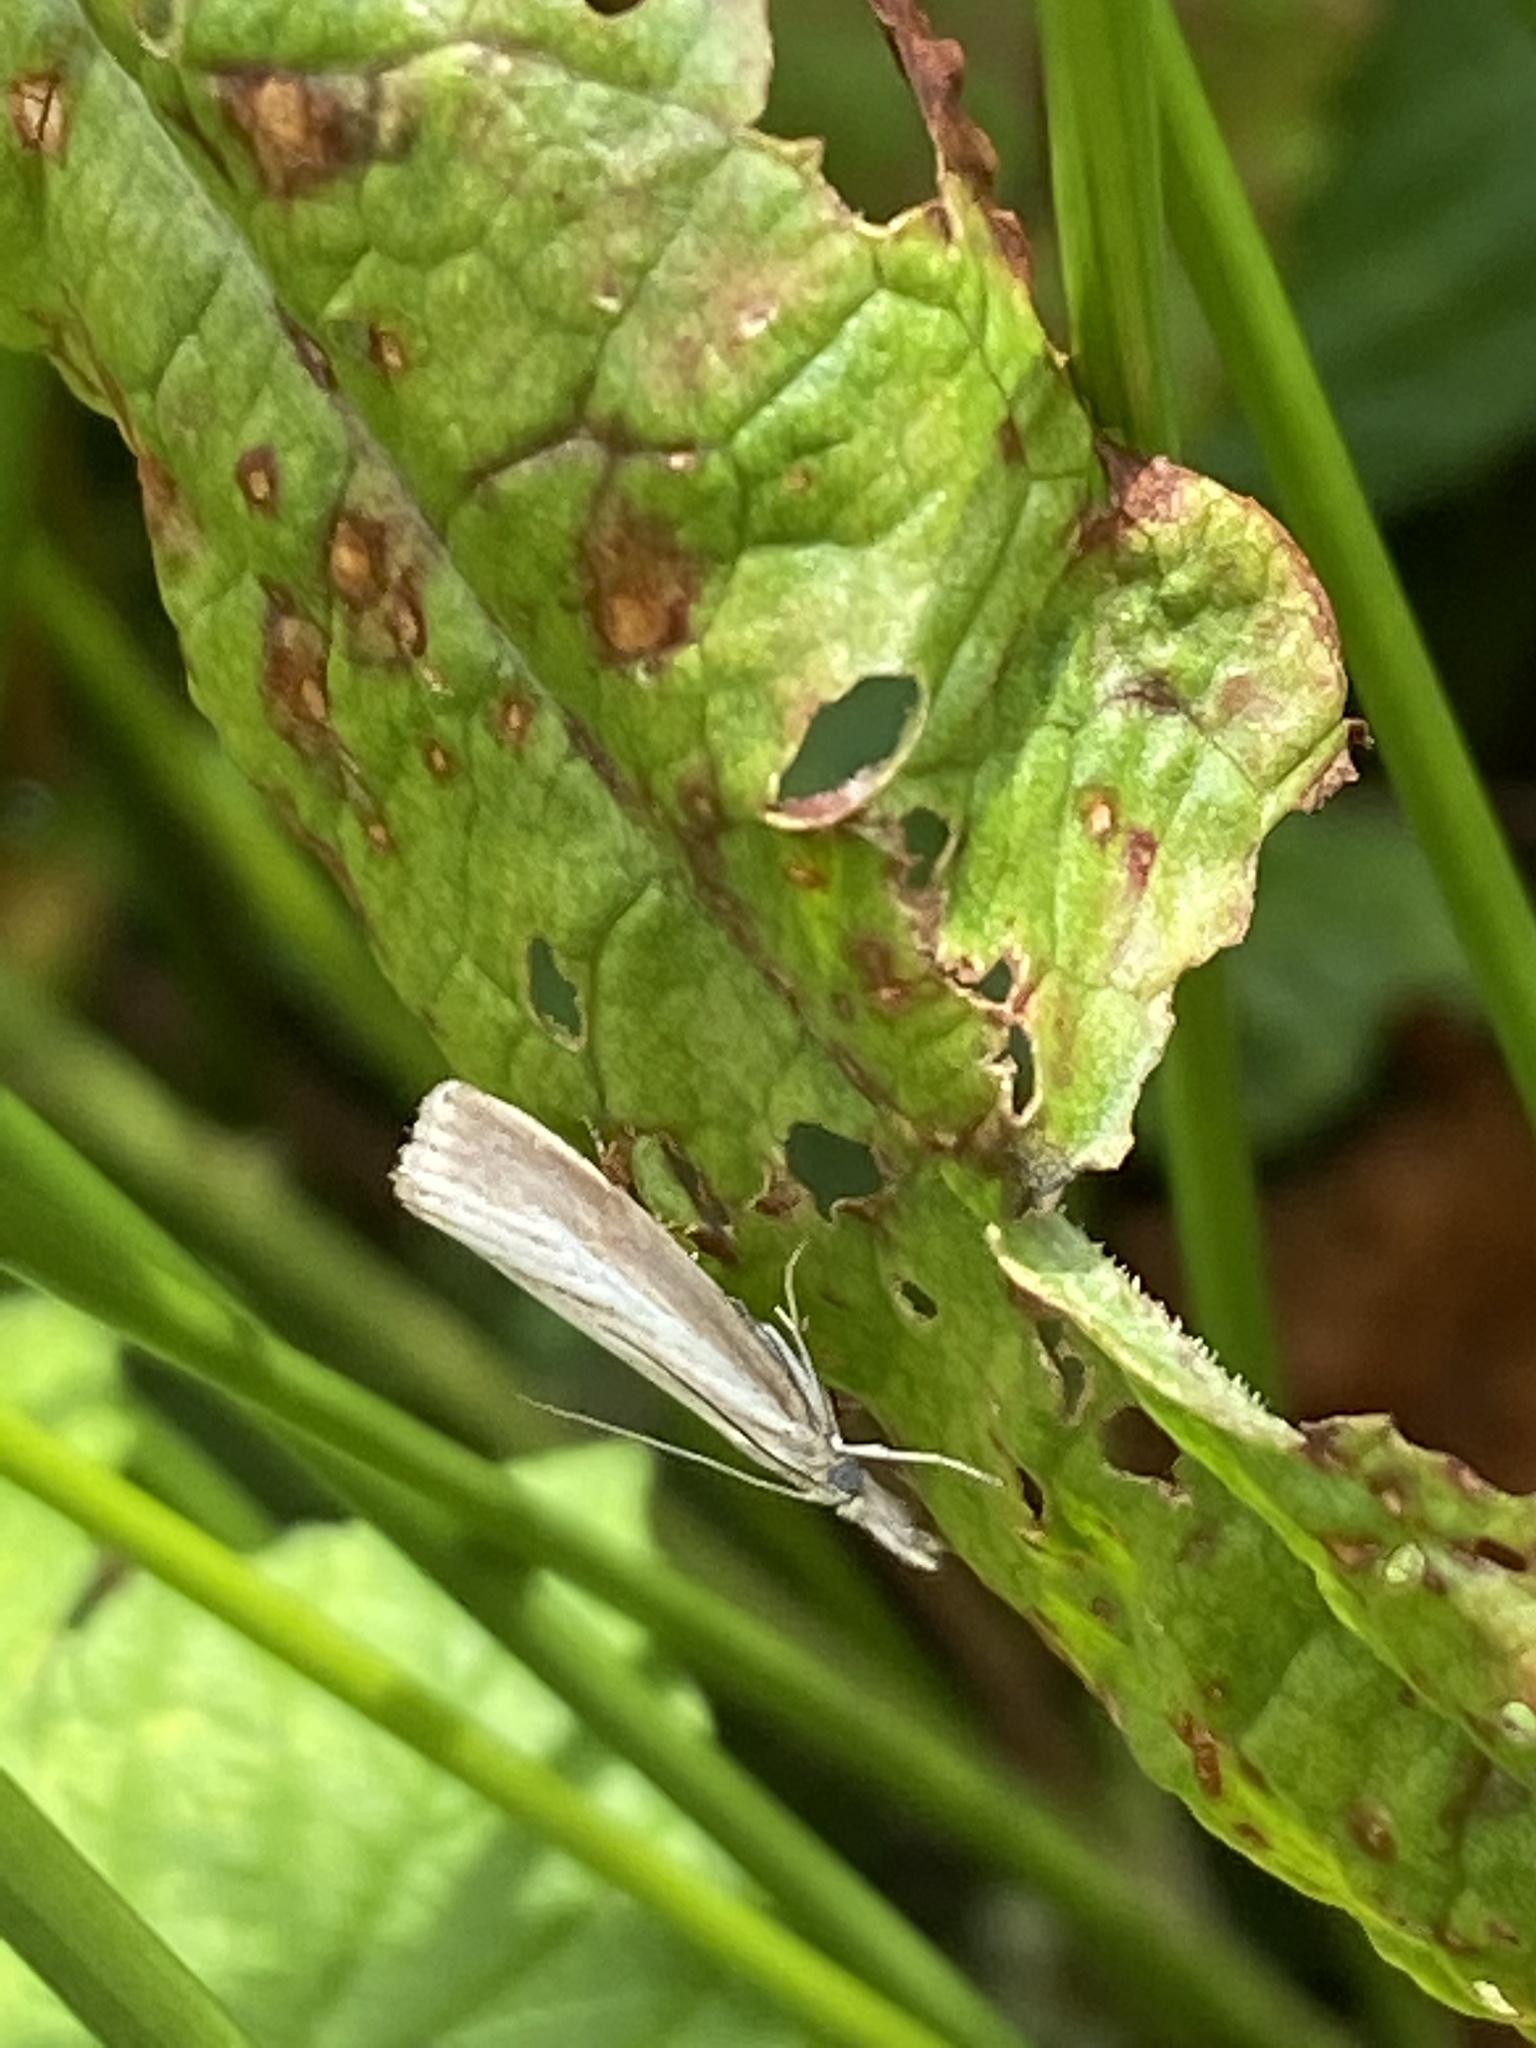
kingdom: Animalia
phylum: Arthropoda
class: Insecta
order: Lepidoptera
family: Crambidae
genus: Agriphila
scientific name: Agriphila straminella
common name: Straw grass-veneer
